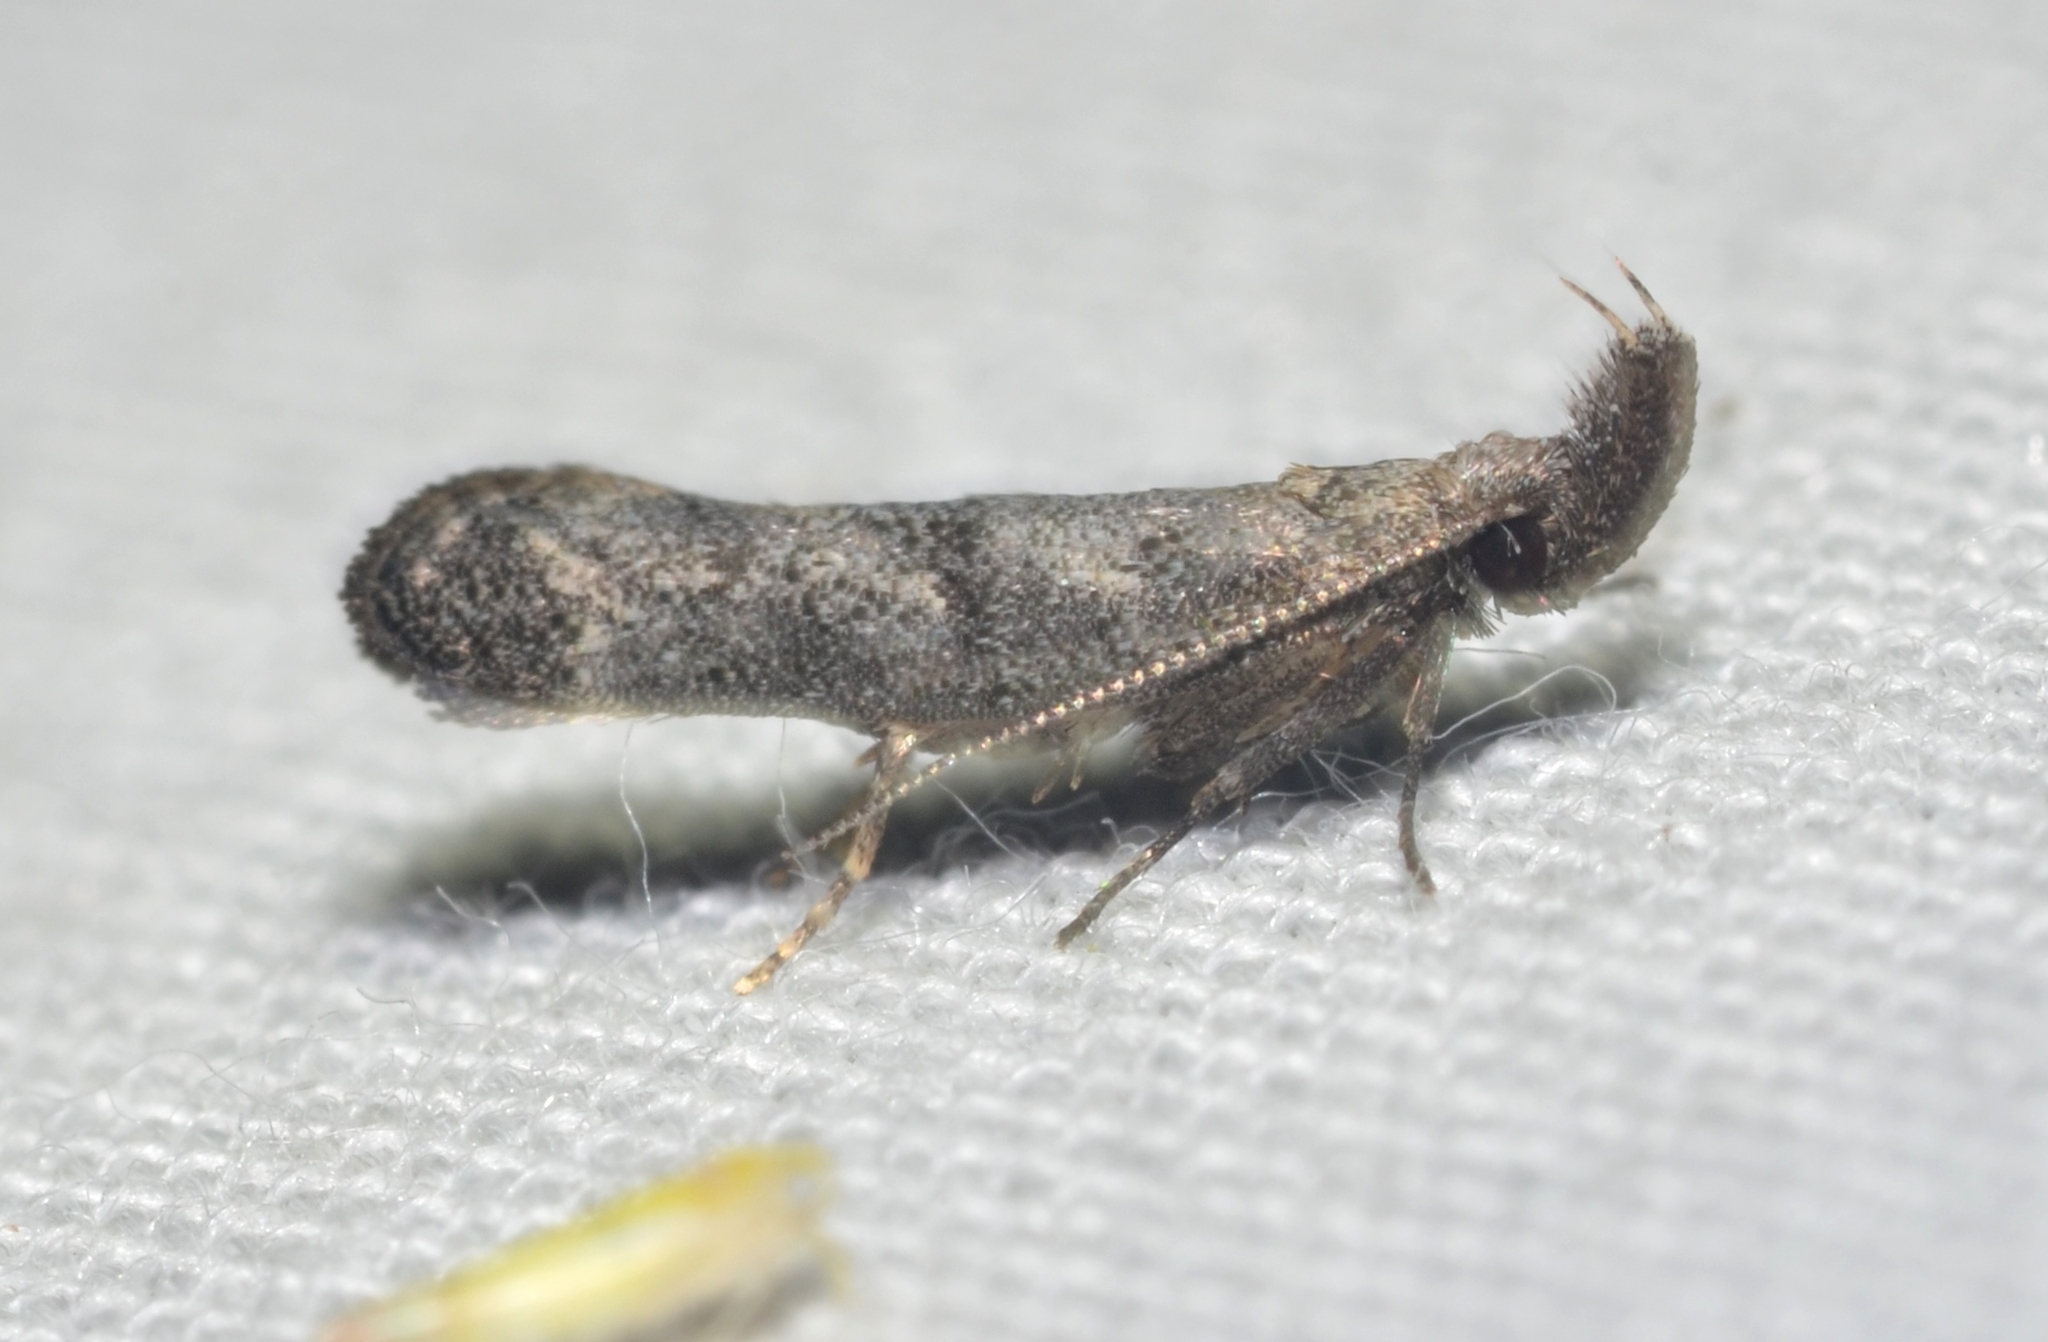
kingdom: Animalia
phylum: Arthropoda
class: Insecta
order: Lepidoptera
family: Gelechiidae
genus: Dichomeris
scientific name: Dichomeris inversella
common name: Inverse dichomeris moth
